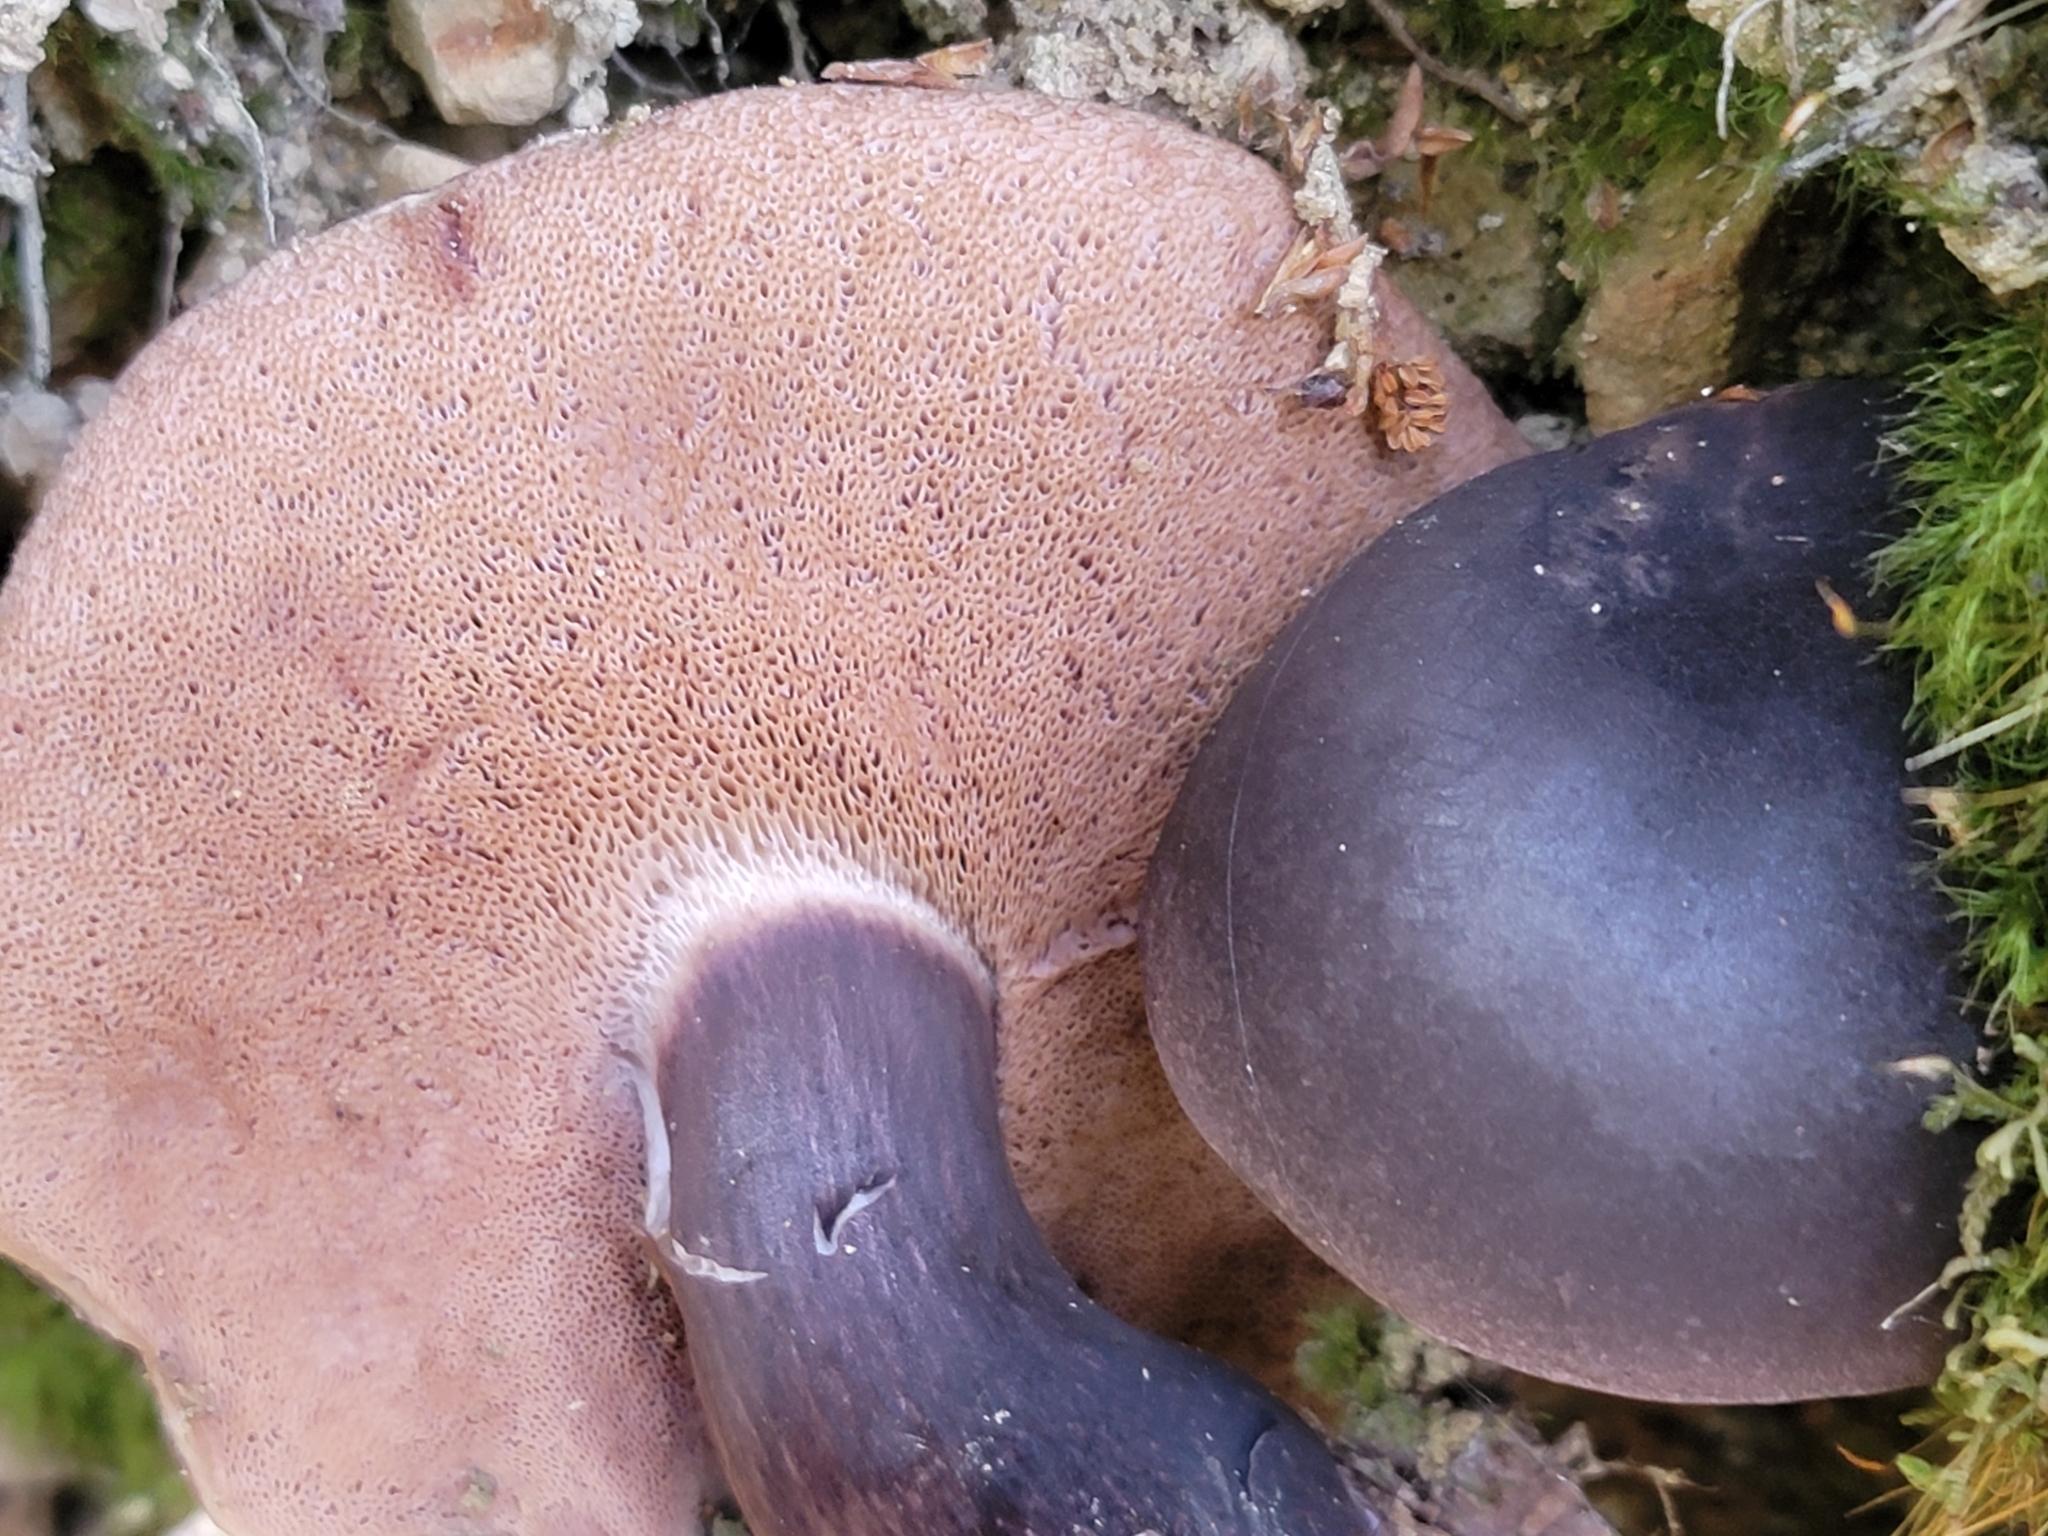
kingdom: Fungi
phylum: Basidiomycota
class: Agaricomycetes
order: Boletales
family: Boletaceae
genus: Porphyrellus
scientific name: Porphyrellus formosus
